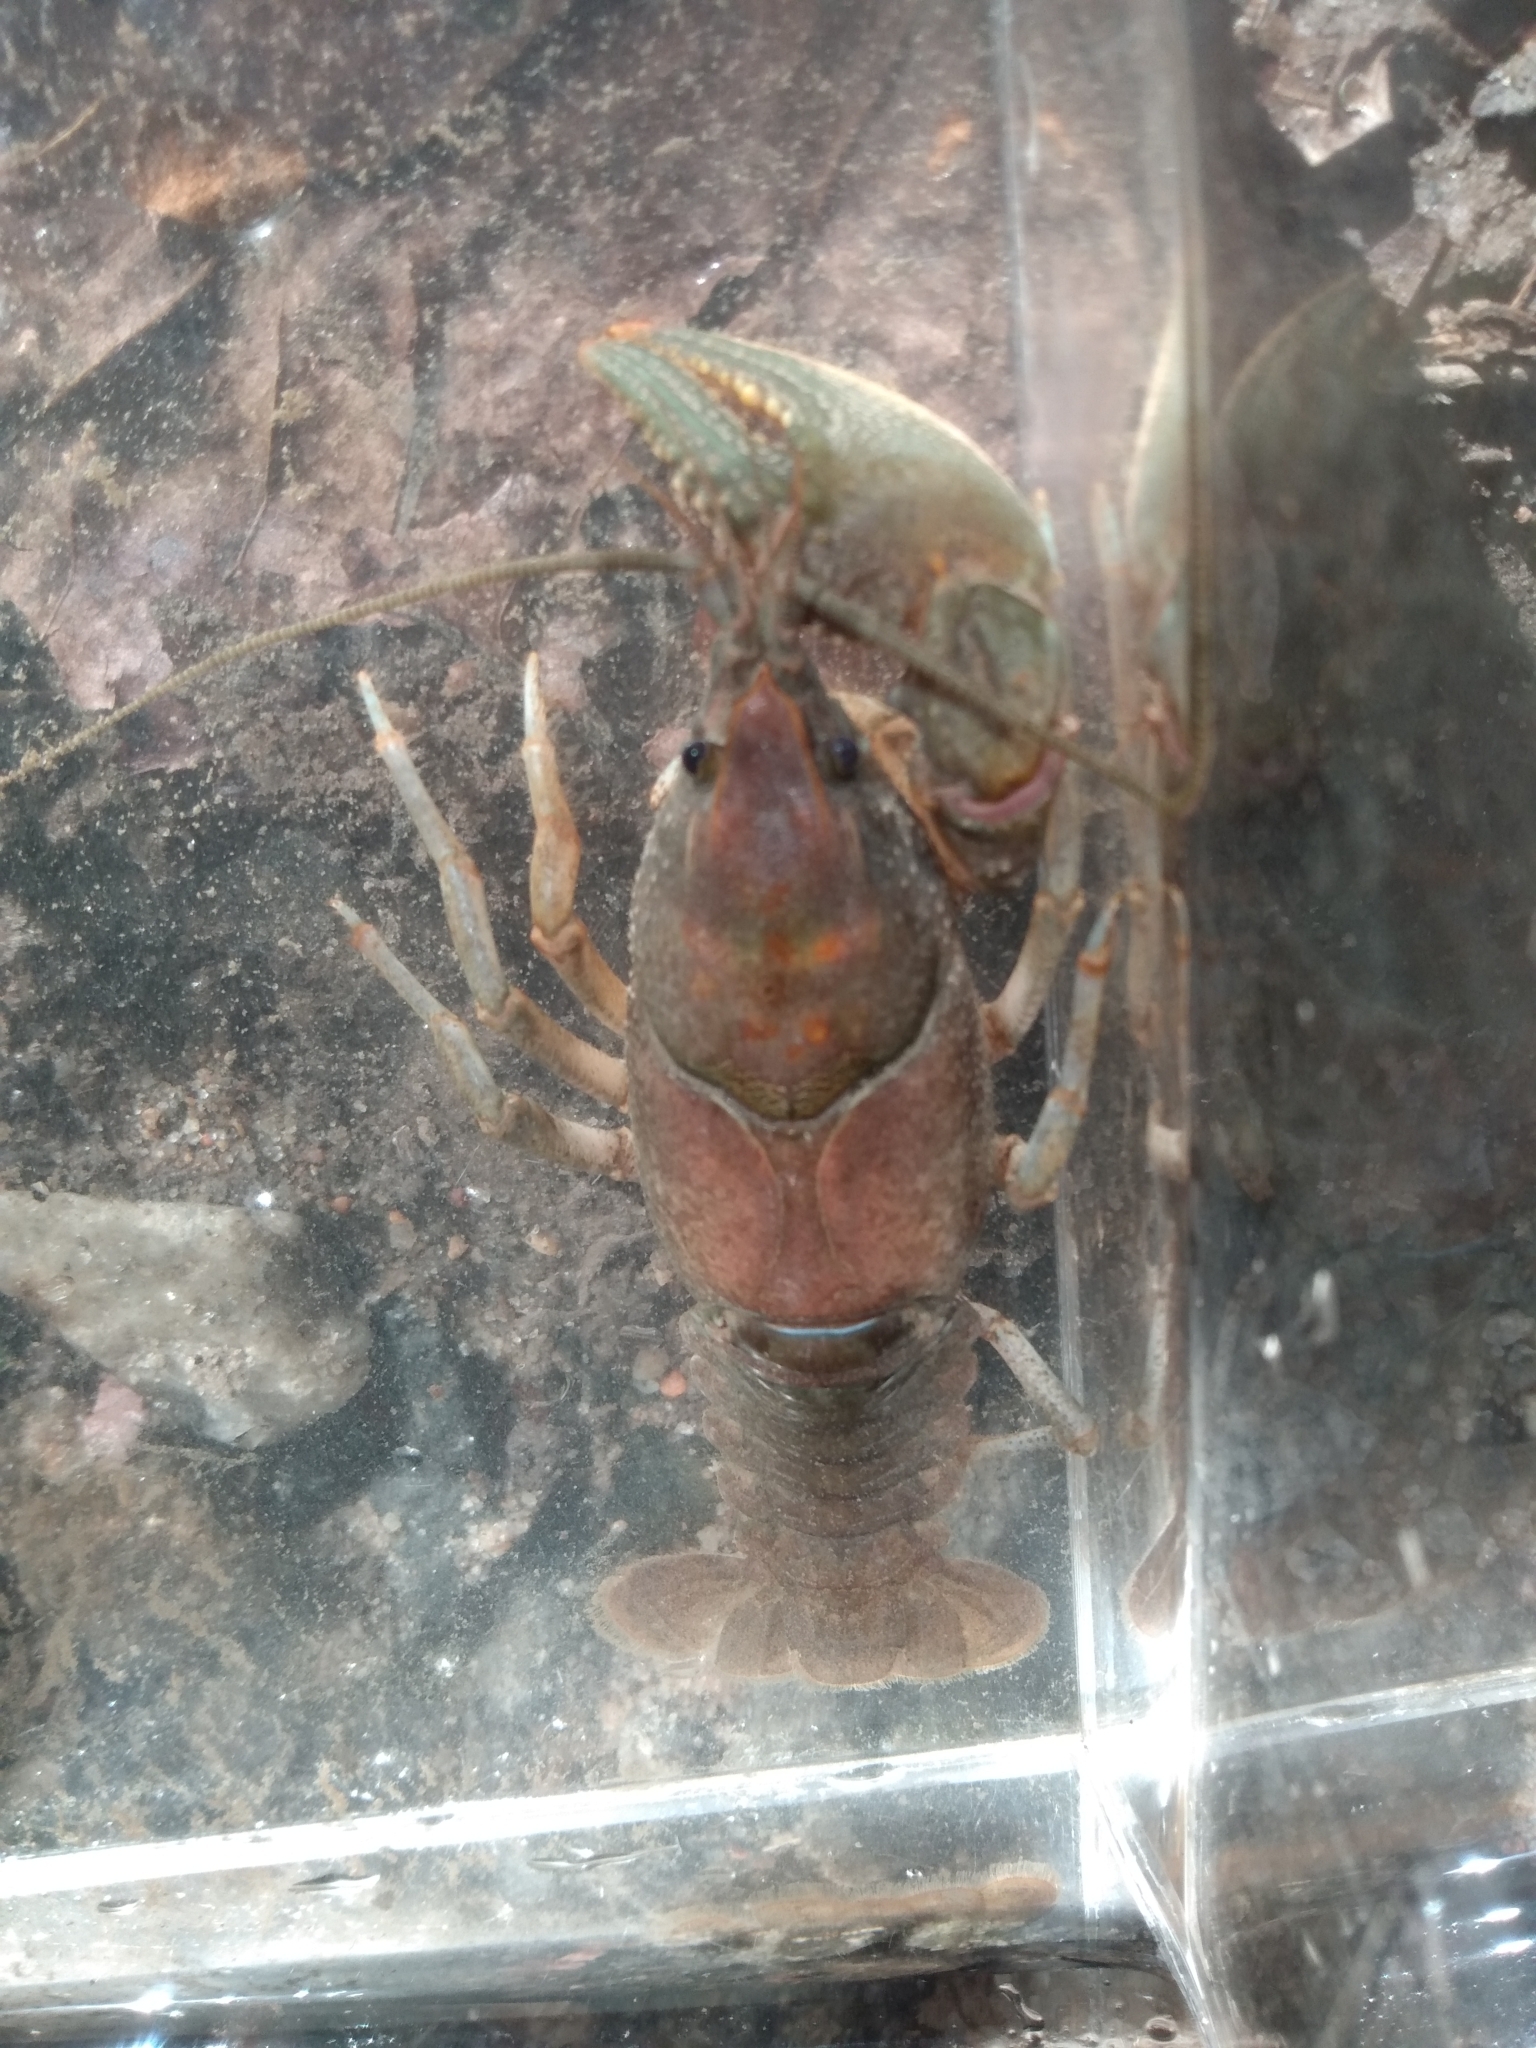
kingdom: Animalia
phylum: Arthropoda
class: Malacostraca
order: Decapoda
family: Cambaridae
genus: Cambarus
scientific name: Cambarus latimanus
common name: Variable crayfish
